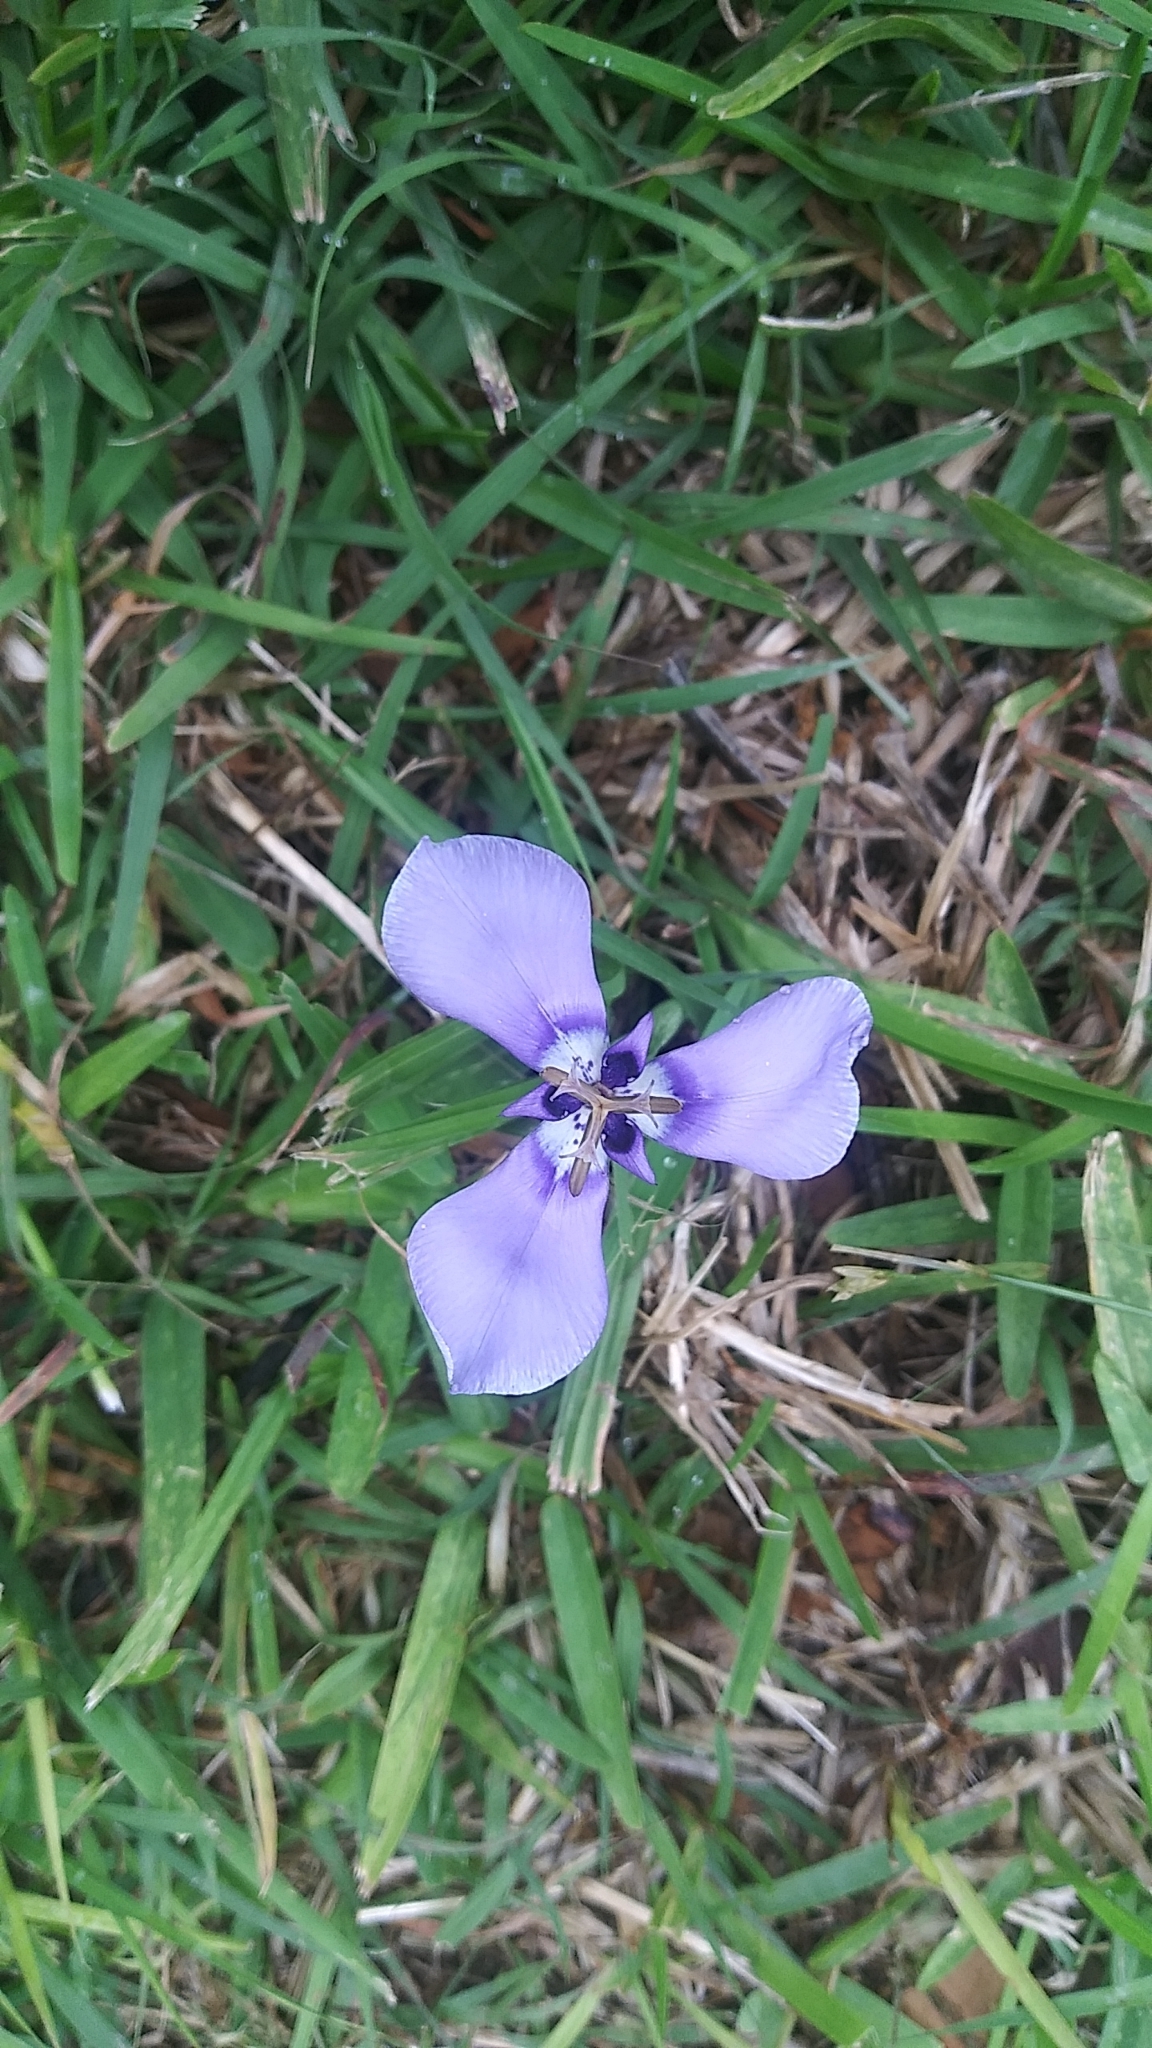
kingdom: Plantae
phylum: Tracheophyta
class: Liliopsida
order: Asparagales
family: Iridaceae
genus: Herbertia
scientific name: Herbertia lahue
